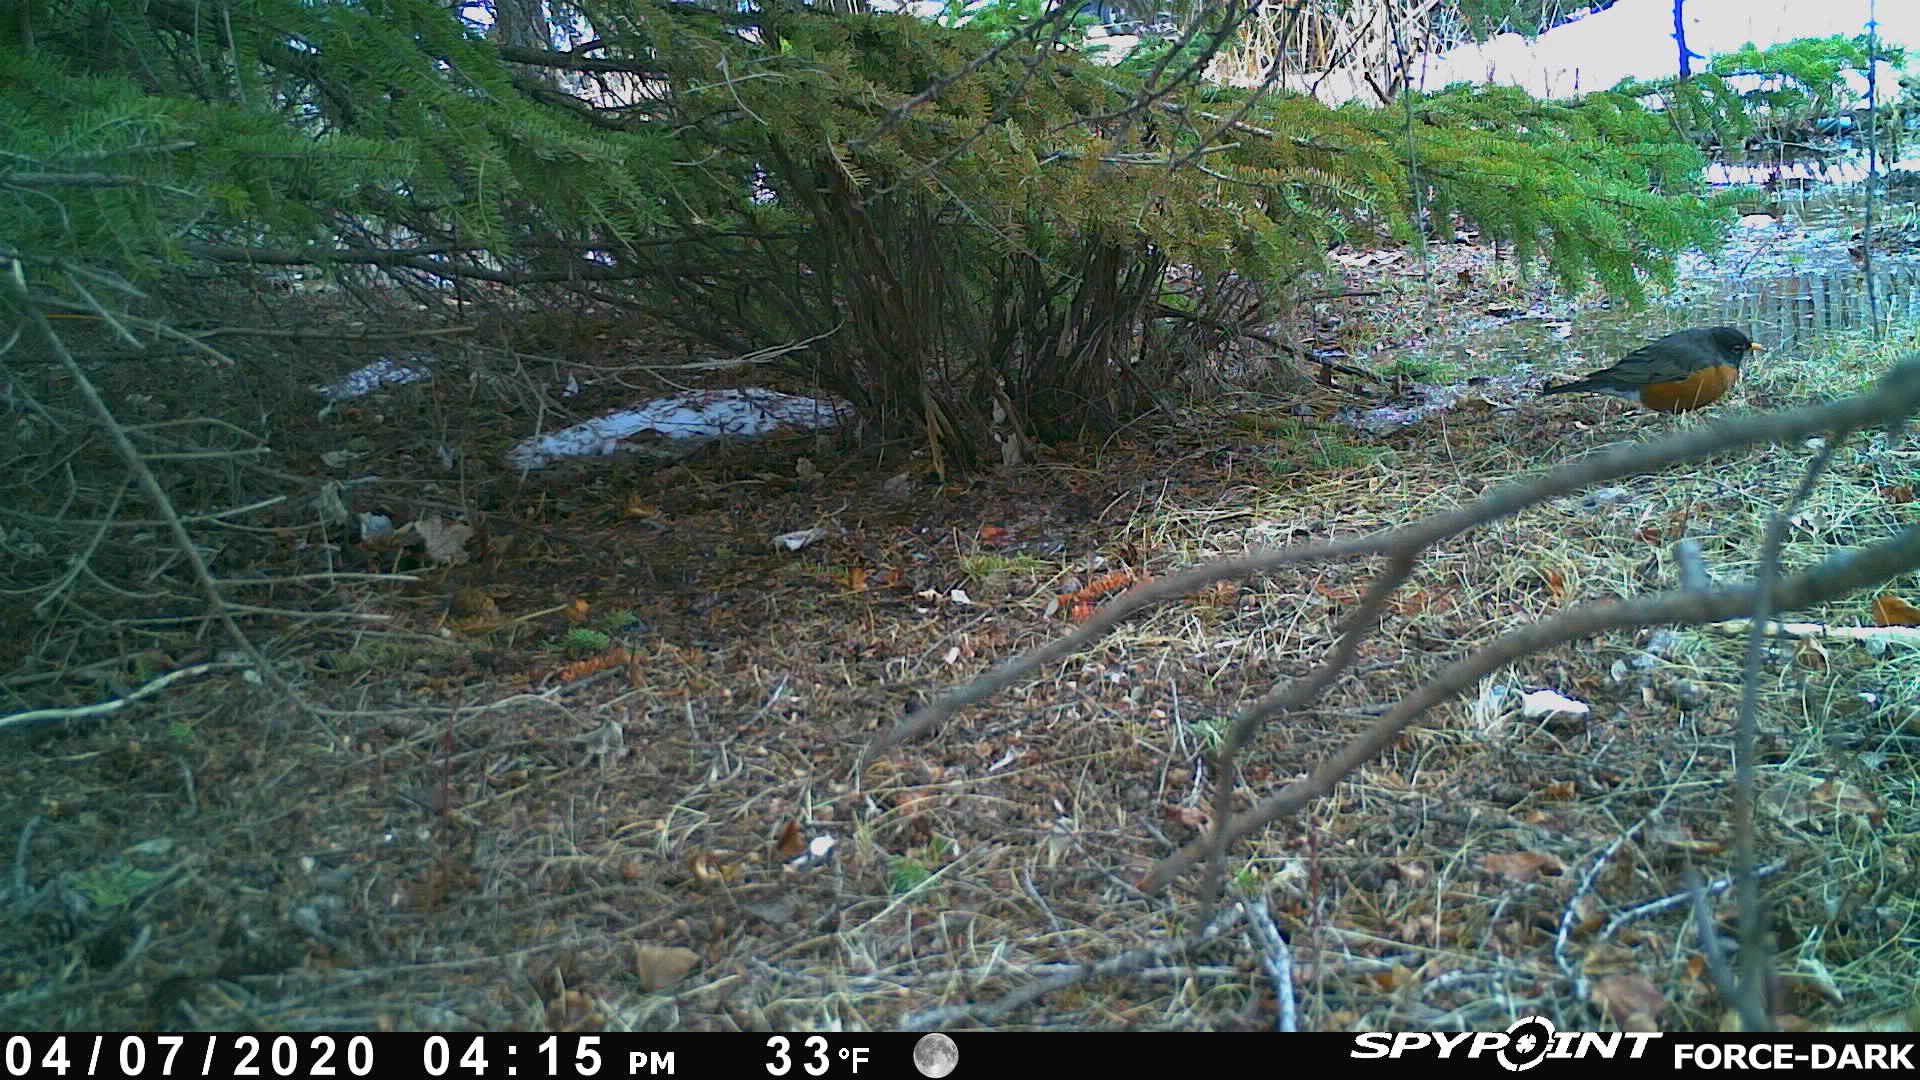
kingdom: Animalia
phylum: Chordata
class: Aves
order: Passeriformes
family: Turdidae
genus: Turdus
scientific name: Turdus migratorius
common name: American robin
